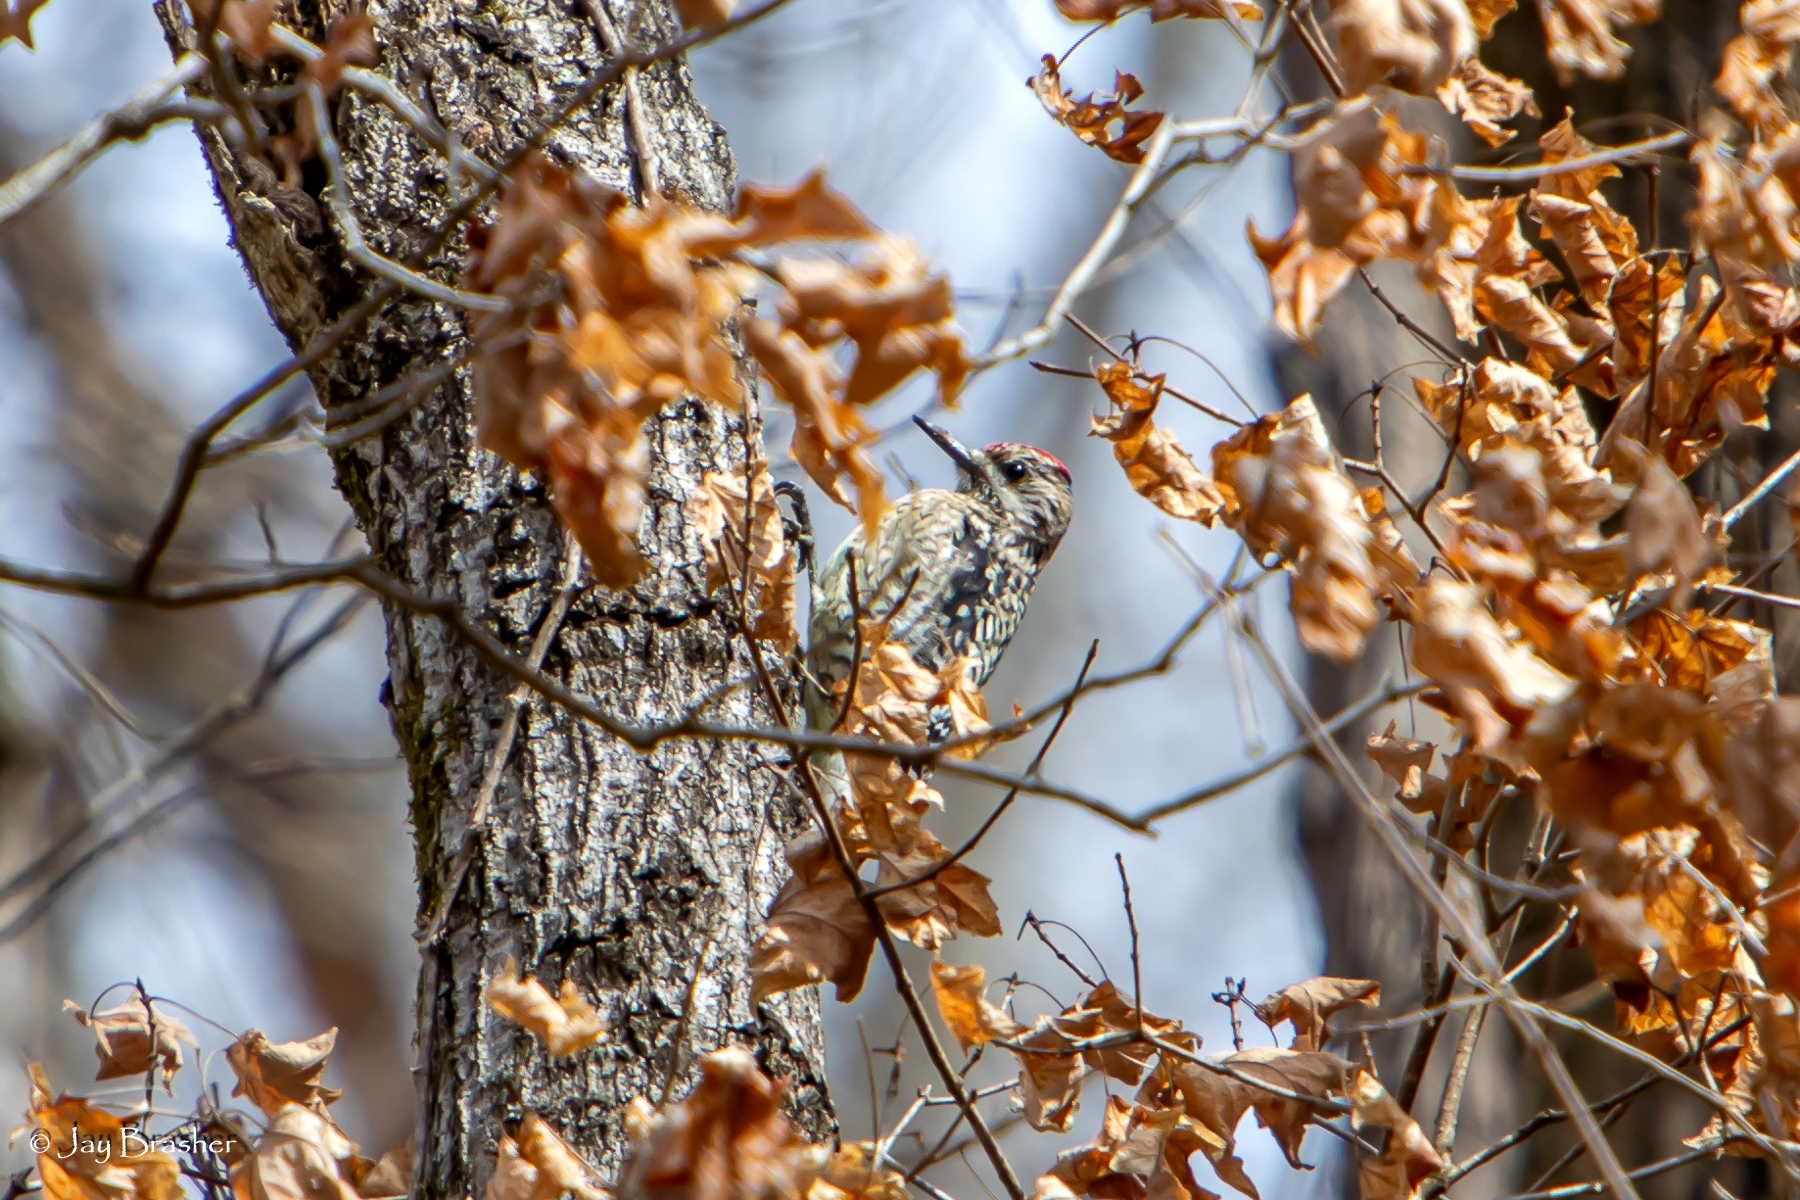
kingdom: Animalia
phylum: Chordata
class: Aves
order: Piciformes
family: Picidae
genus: Sphyrapicus
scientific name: Sphyrapicus varius
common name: Yellow-bellied sapsucker
